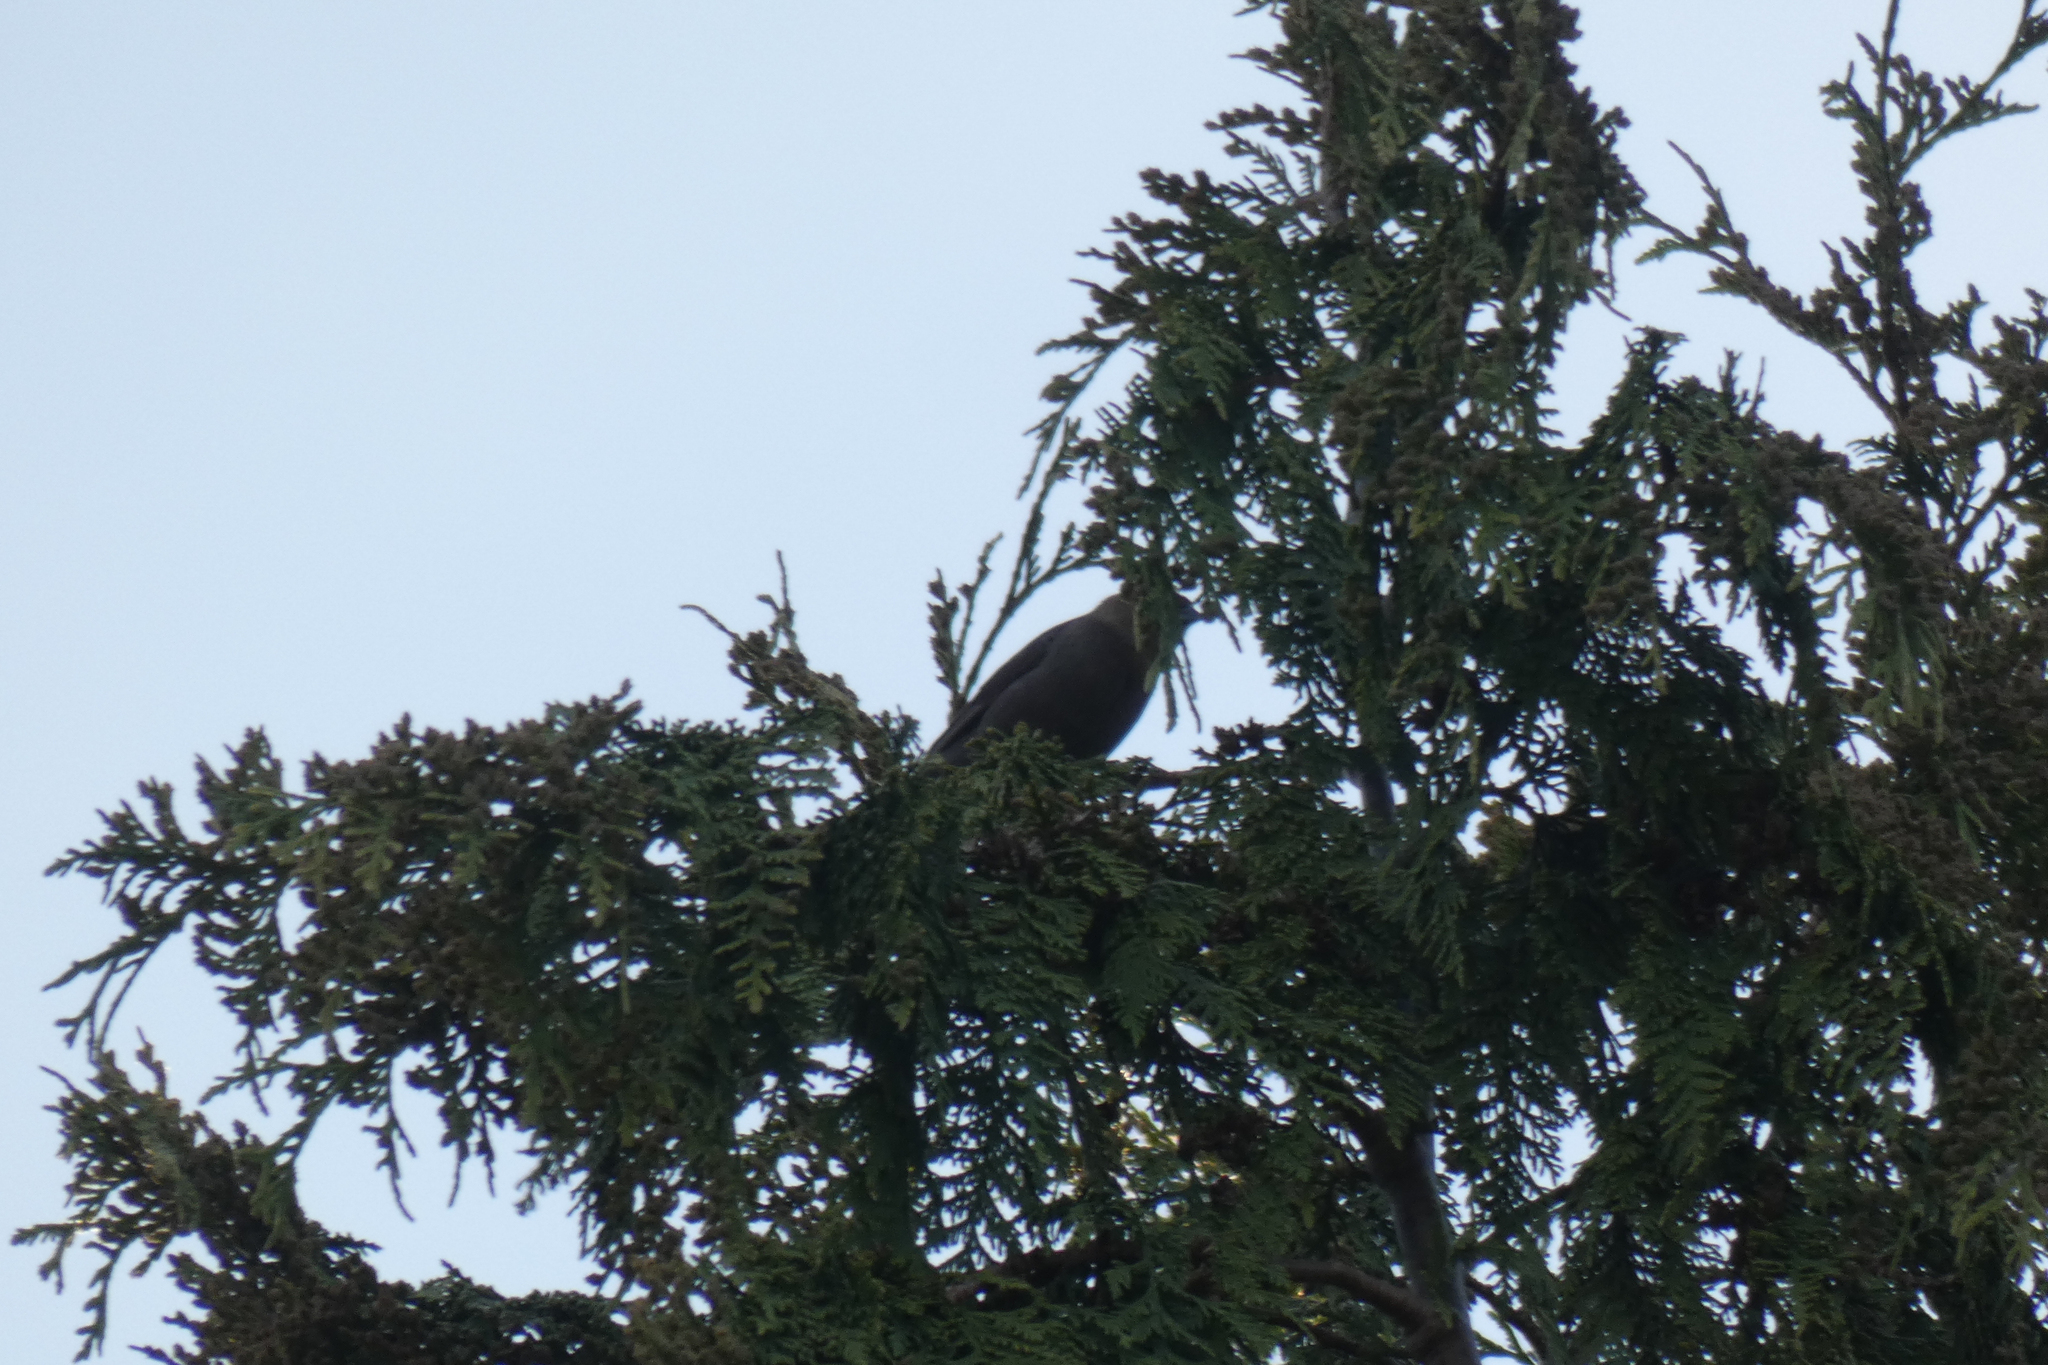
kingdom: Animalia
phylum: Chordata
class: Aves
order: Passeriformes
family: Icteridae
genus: Molothrus
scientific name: Molothrus ater
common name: Brown-headed cowbird
